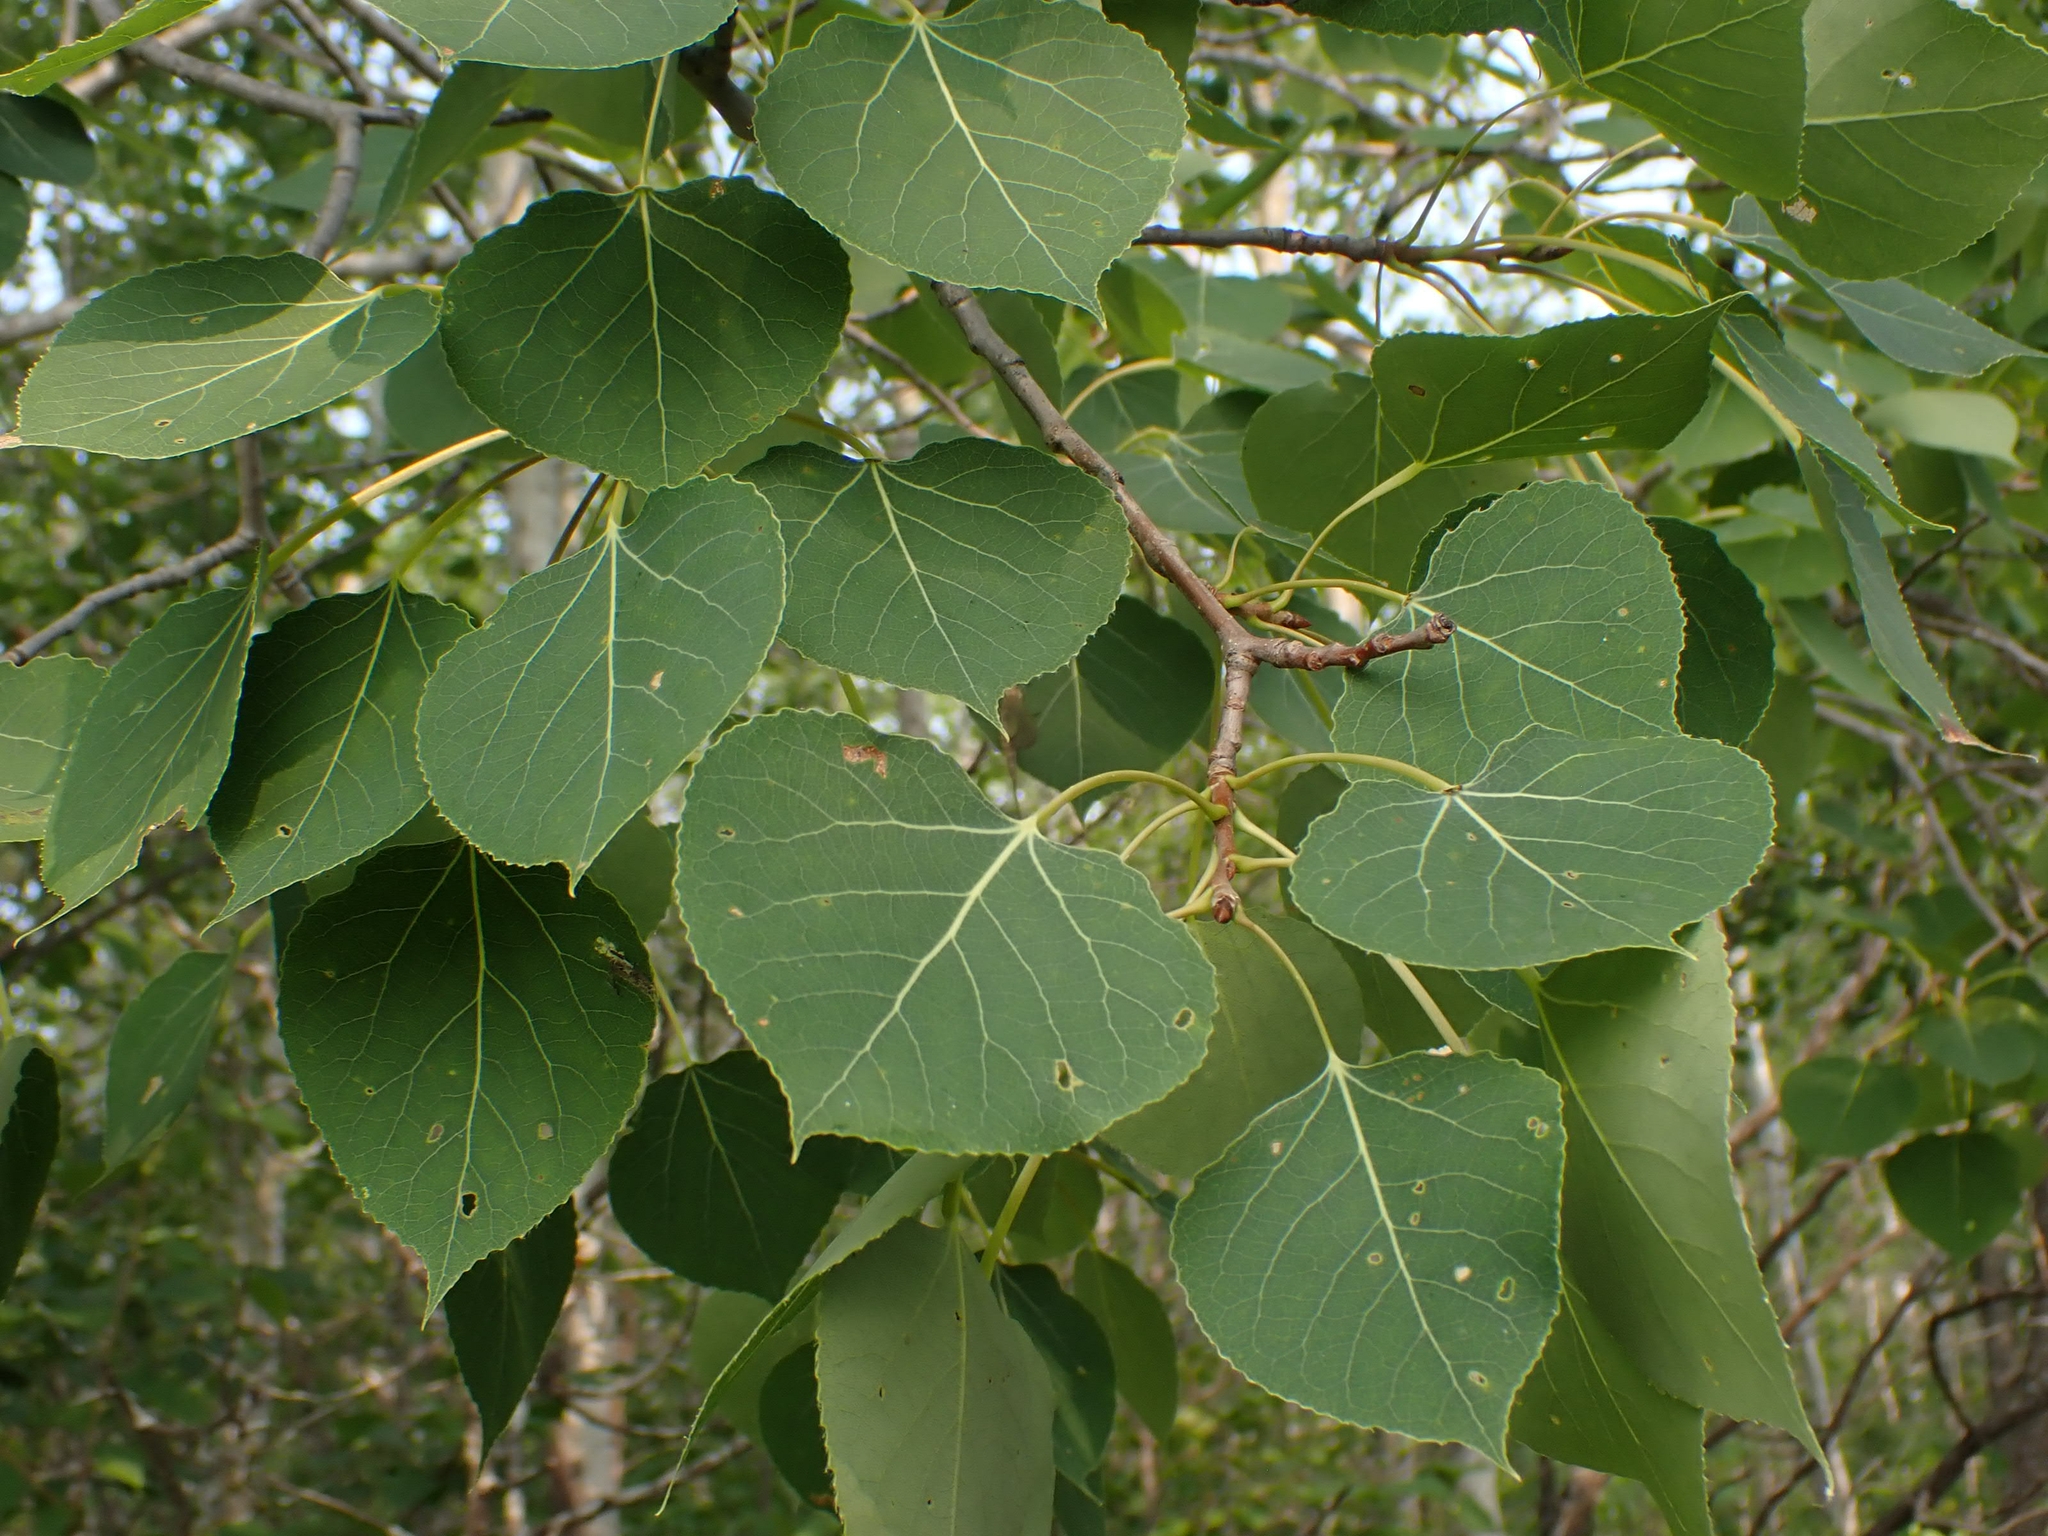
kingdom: Plantae
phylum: Tracheophyta
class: Magnoliopsida
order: Malpighiales
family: Salicaceae
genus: Populus
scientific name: Populus tremuloides
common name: Quaking aspen
